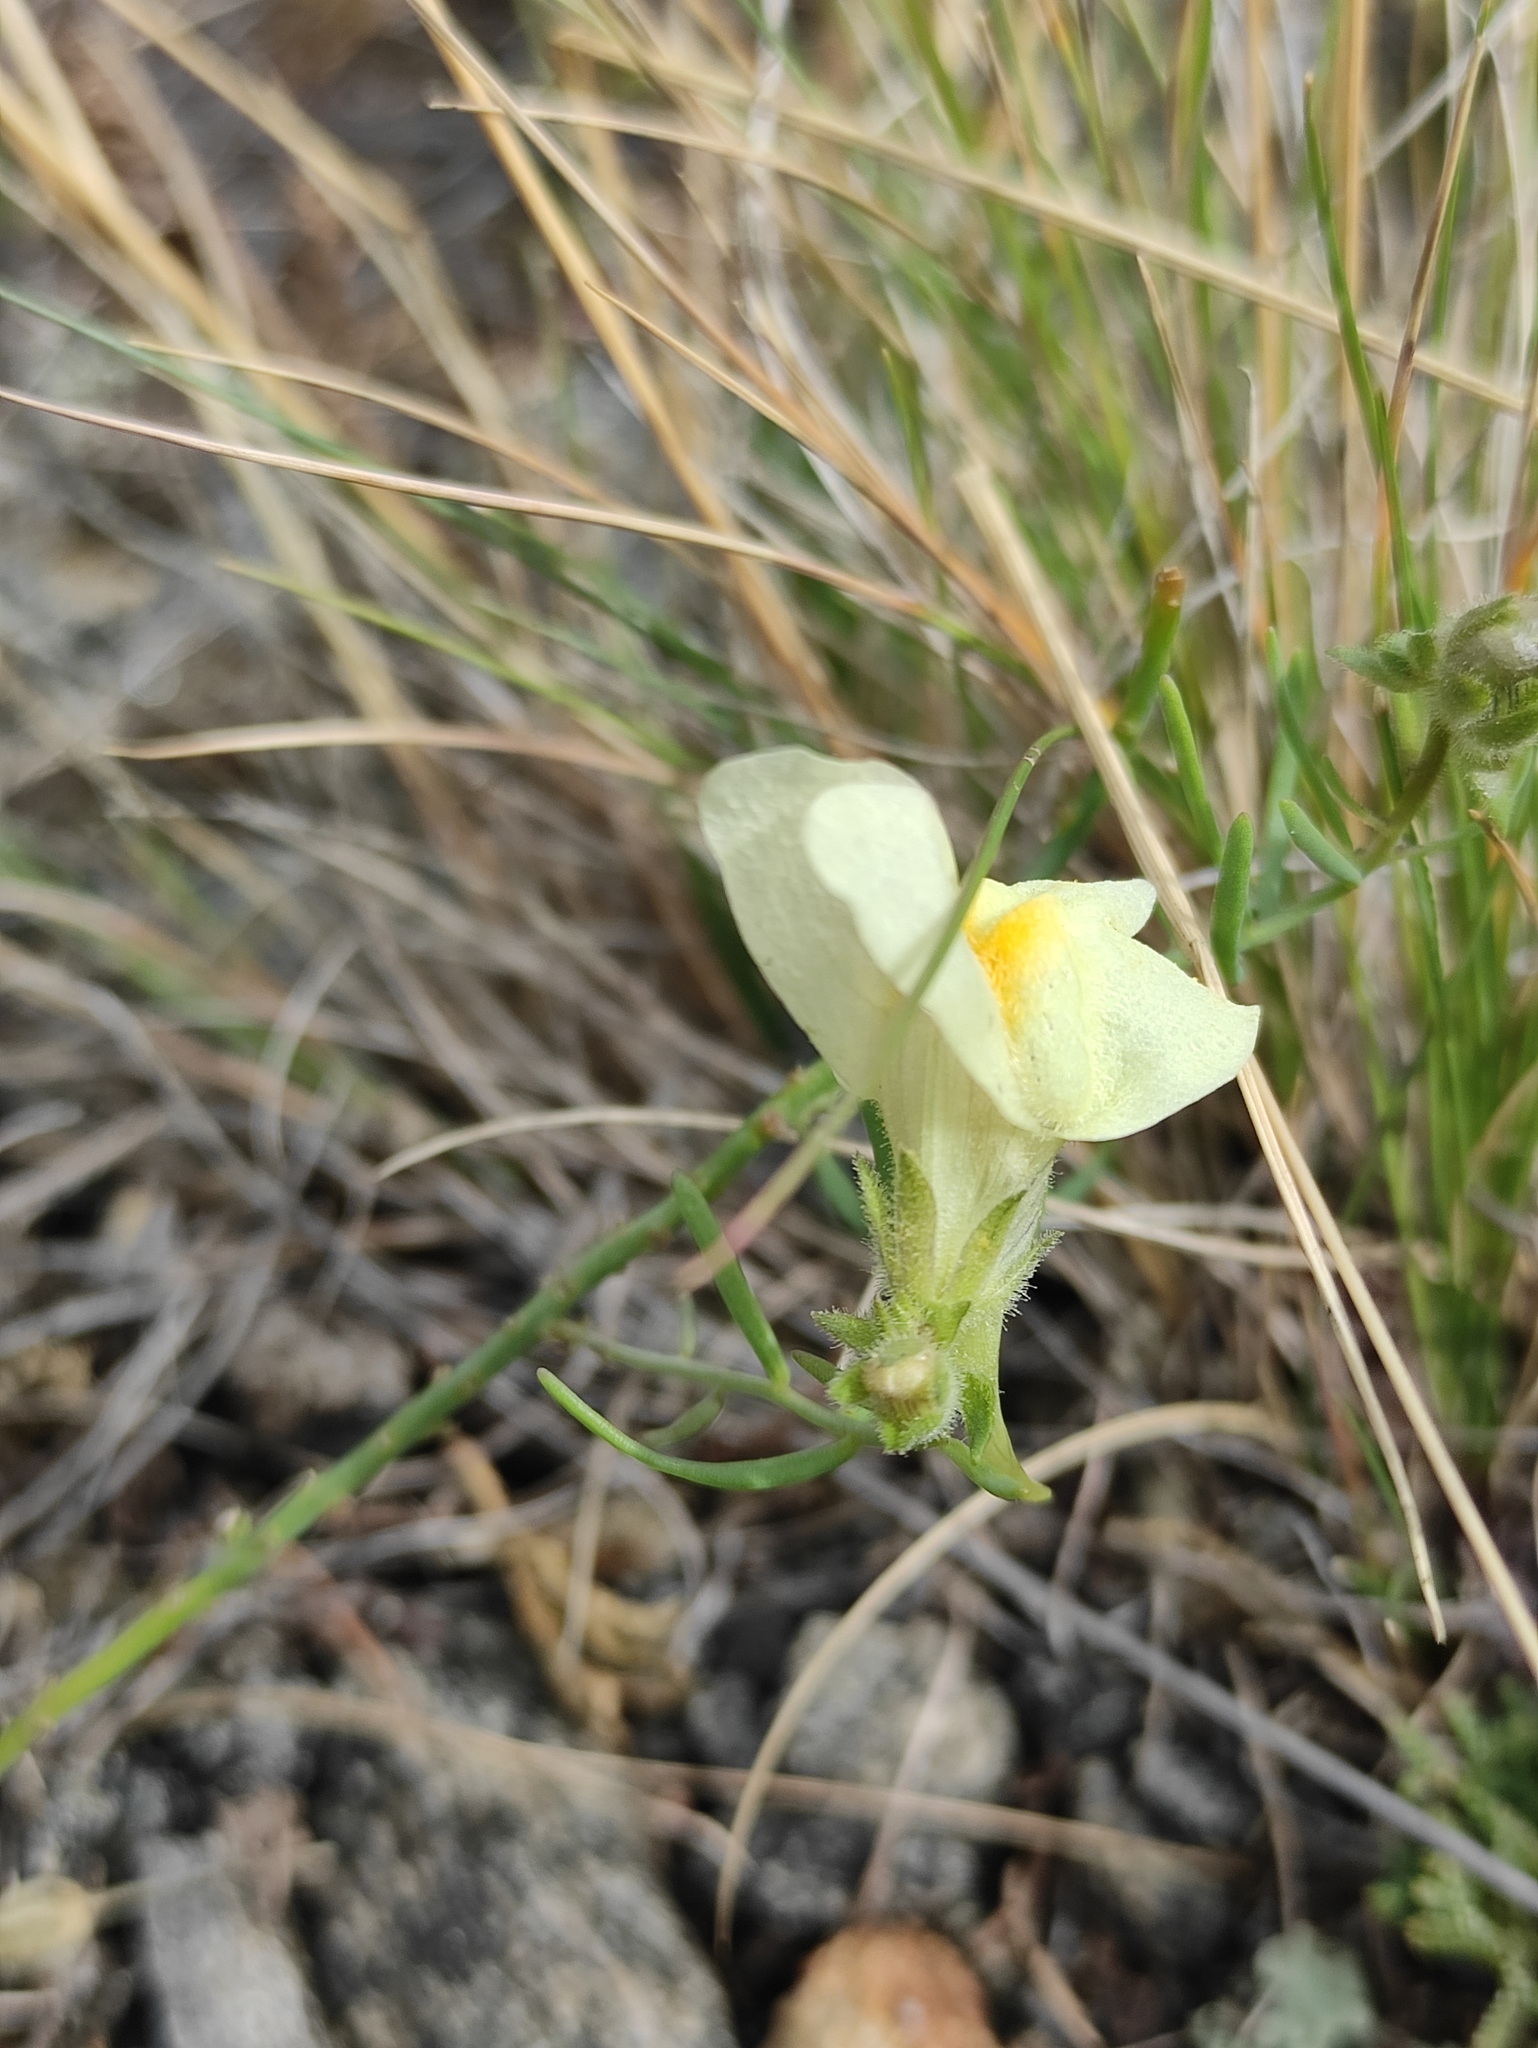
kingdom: Plantae
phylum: Tracheophyta
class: Magnoliopsida
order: Lamiales
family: Plantaginaceae
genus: Linaria
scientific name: Linaria buriatica
